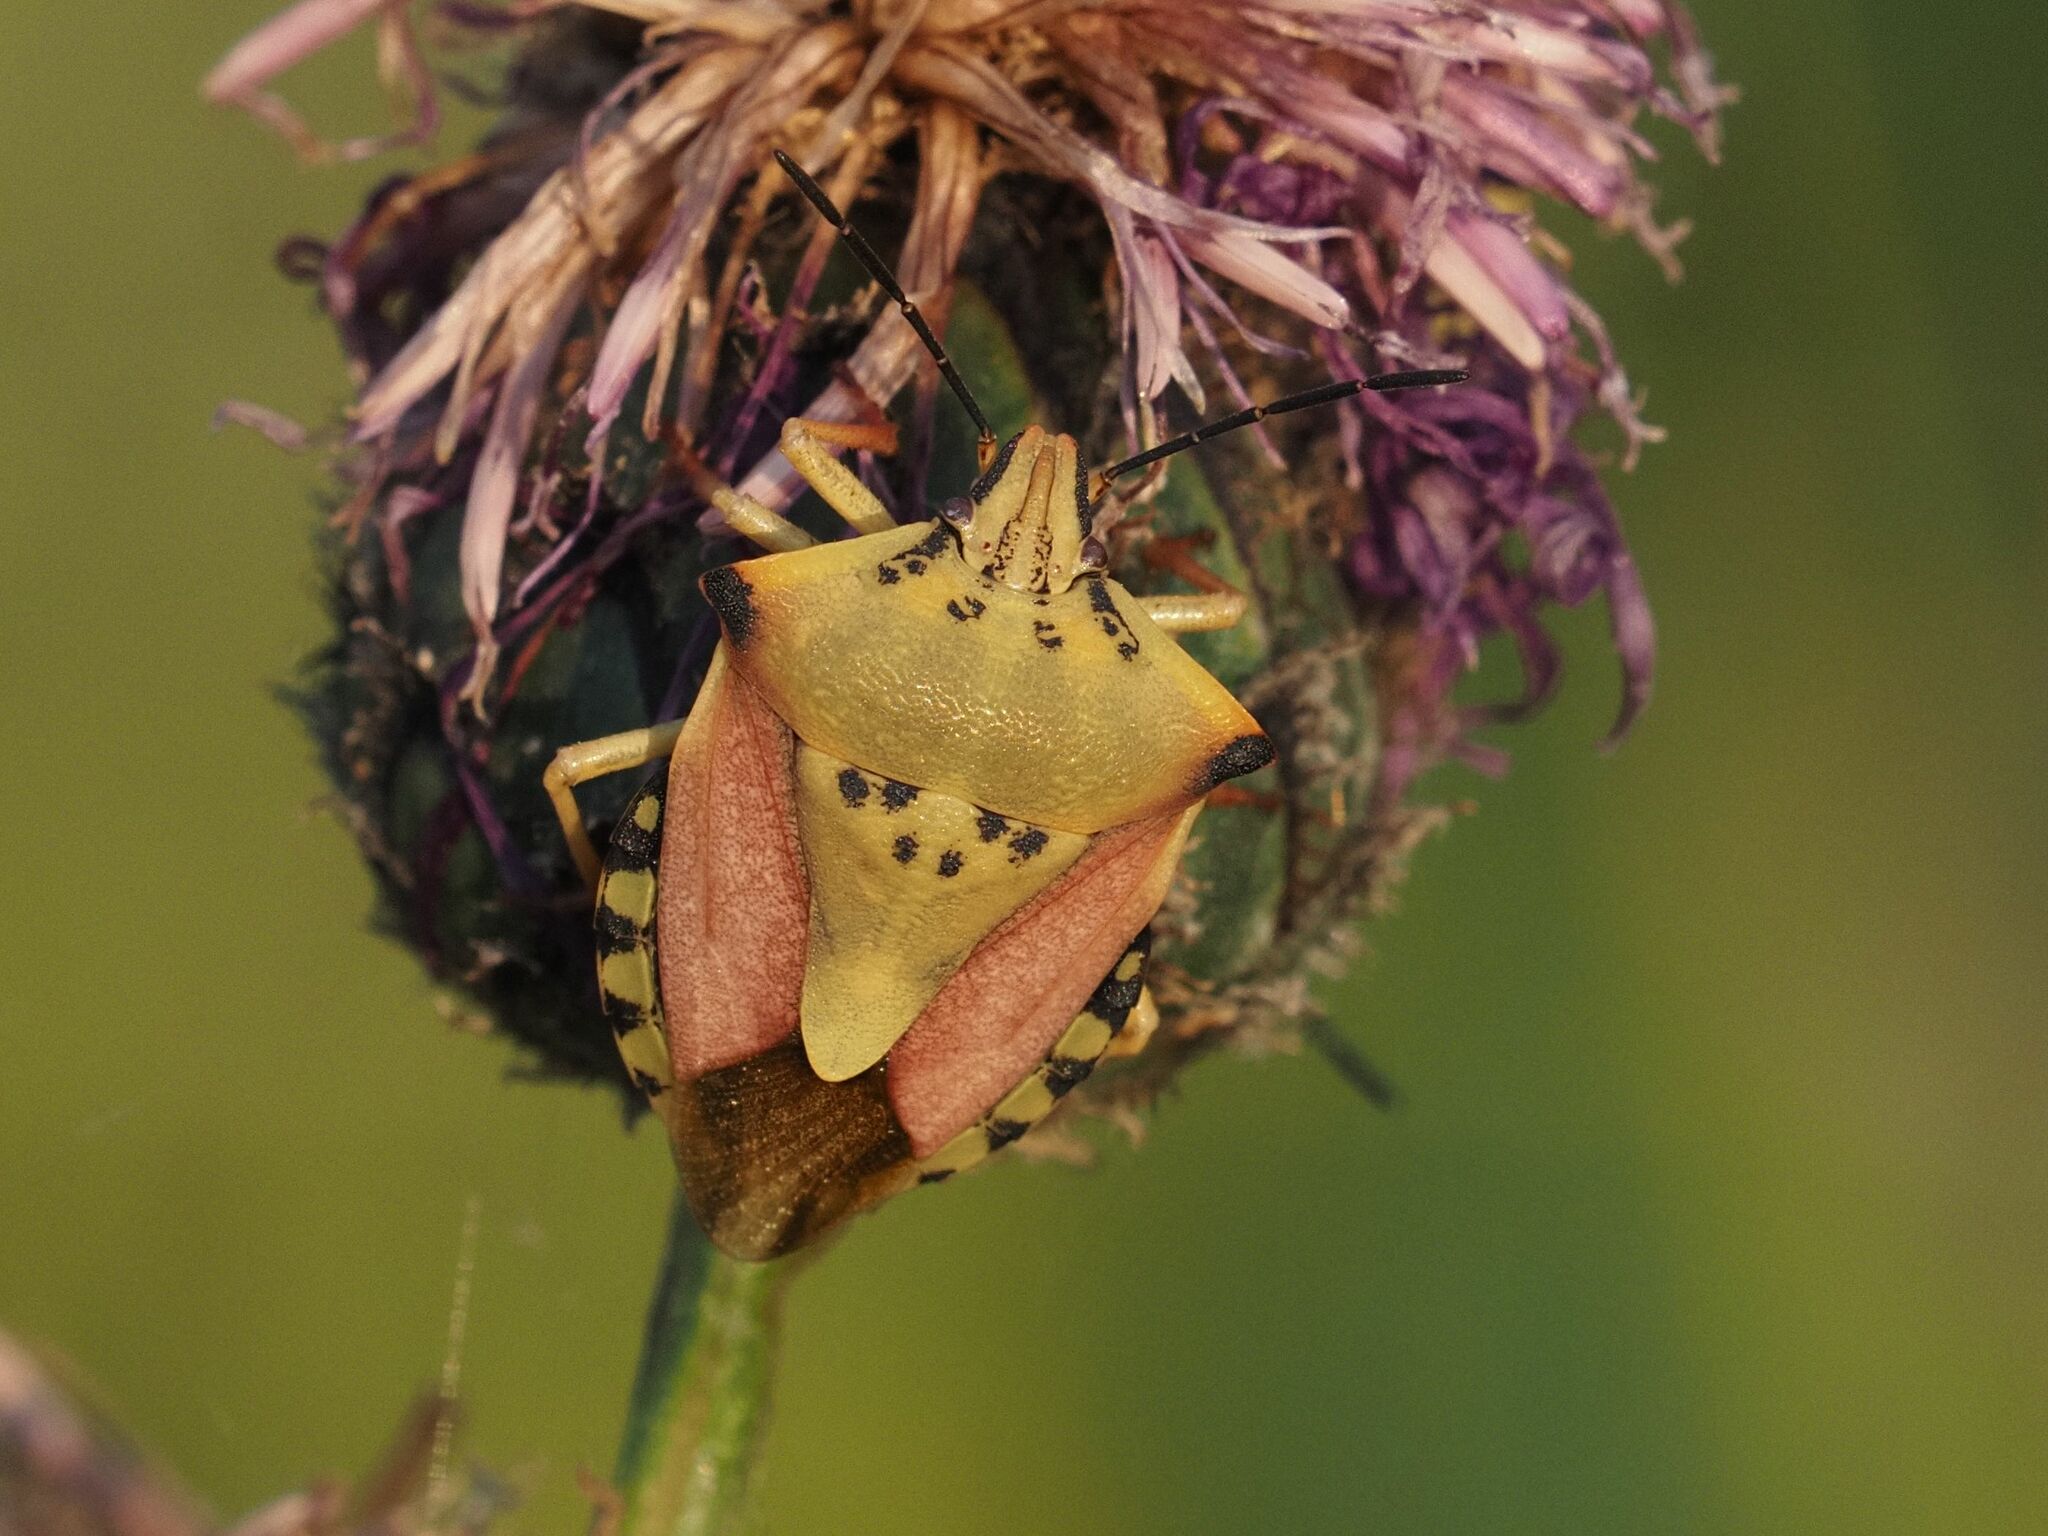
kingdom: Animalia
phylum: Arthropoda
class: Insecta
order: Hemiptera
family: Pentatomidae
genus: Carpocoris
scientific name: Carpocoris fuscispinus
